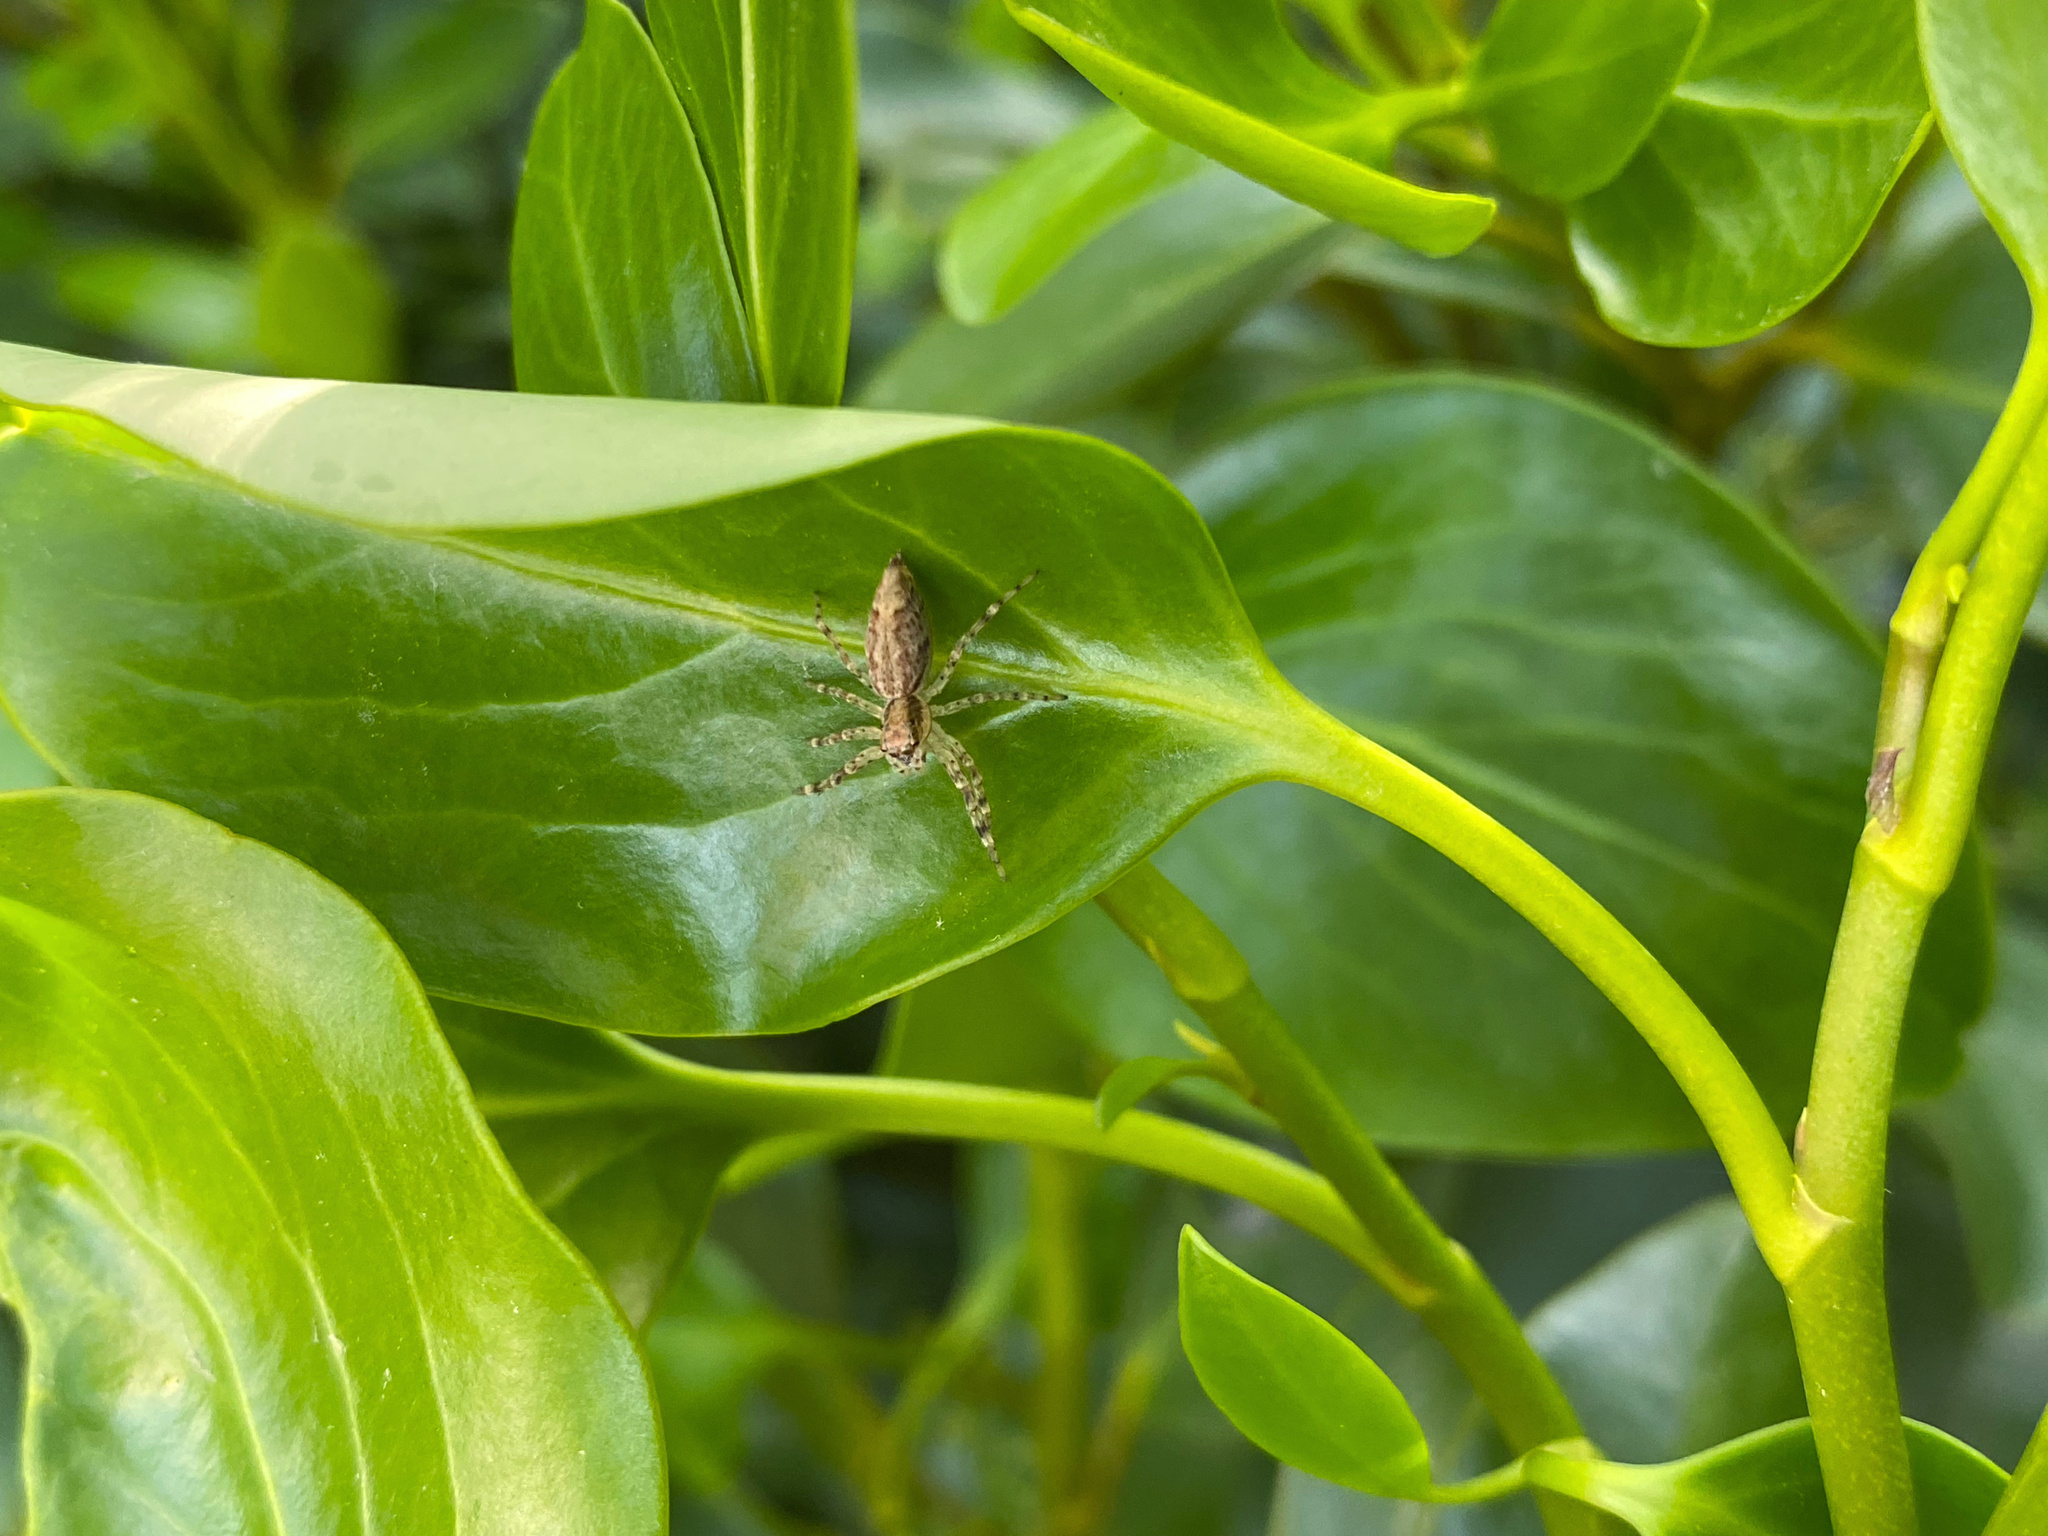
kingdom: Animalia
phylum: Arthropoda
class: Arachnida
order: Araneae
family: Salticidae
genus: Helpis
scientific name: Helpis minitabunda
